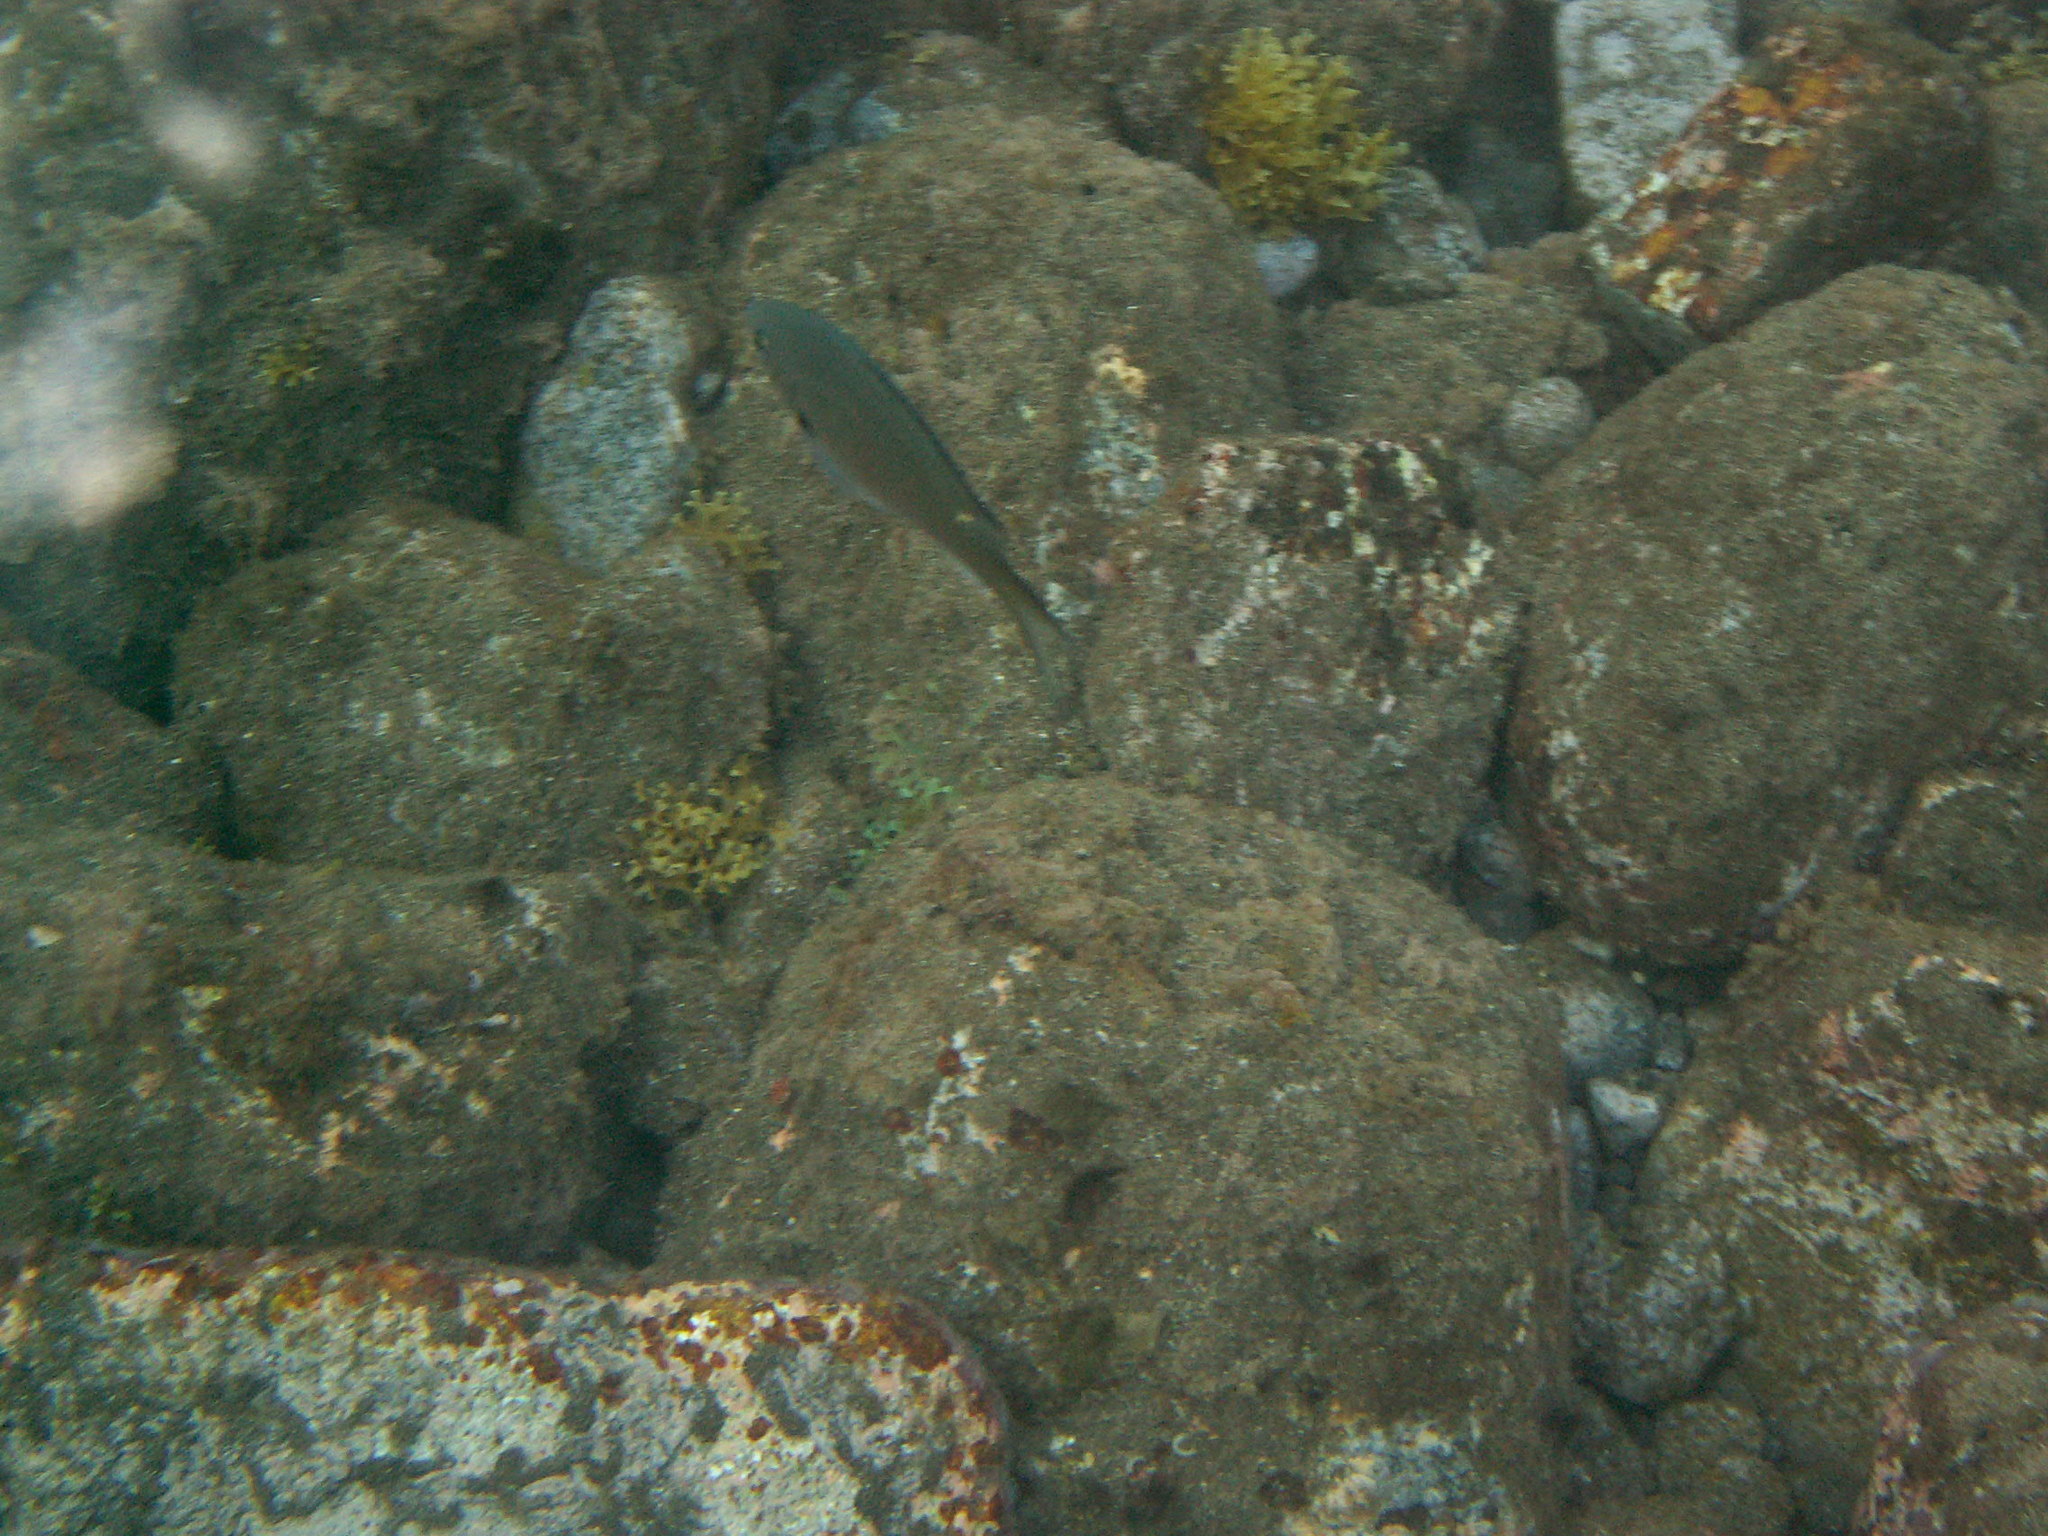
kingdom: Animalia
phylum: Chordata
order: Perciformes
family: Pomacentridae
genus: Chromis
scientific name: Chromis multilineata
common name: Brown chromis
